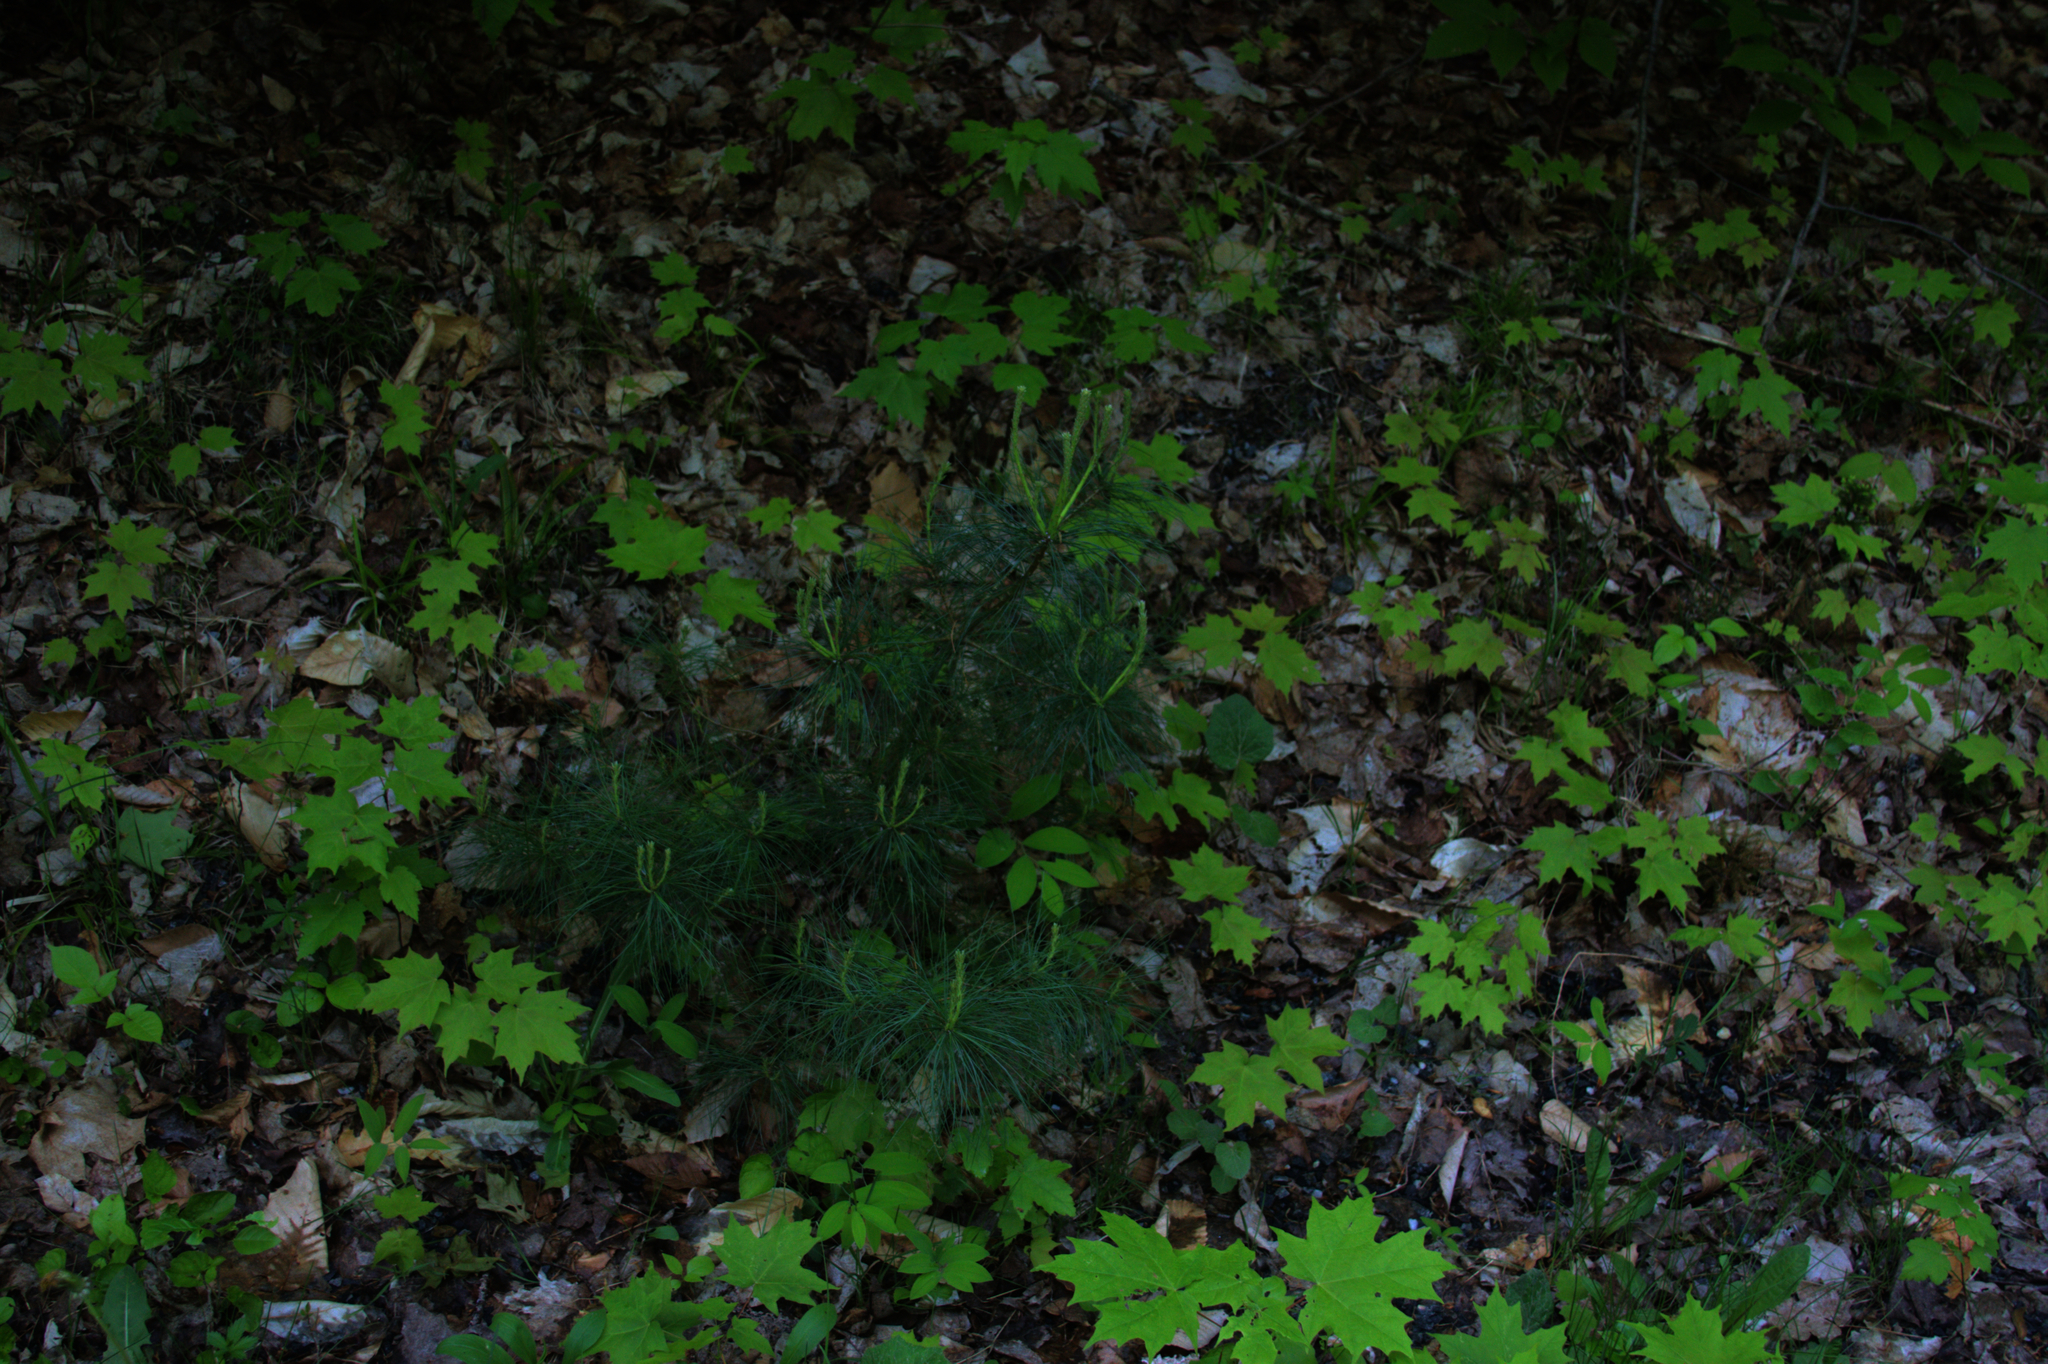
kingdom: Plantae
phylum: Tracheophyta
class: Pinopsida
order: Pinales
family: Pinaceae
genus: Pinus
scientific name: Pinus strobus
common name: Weymouth pine
